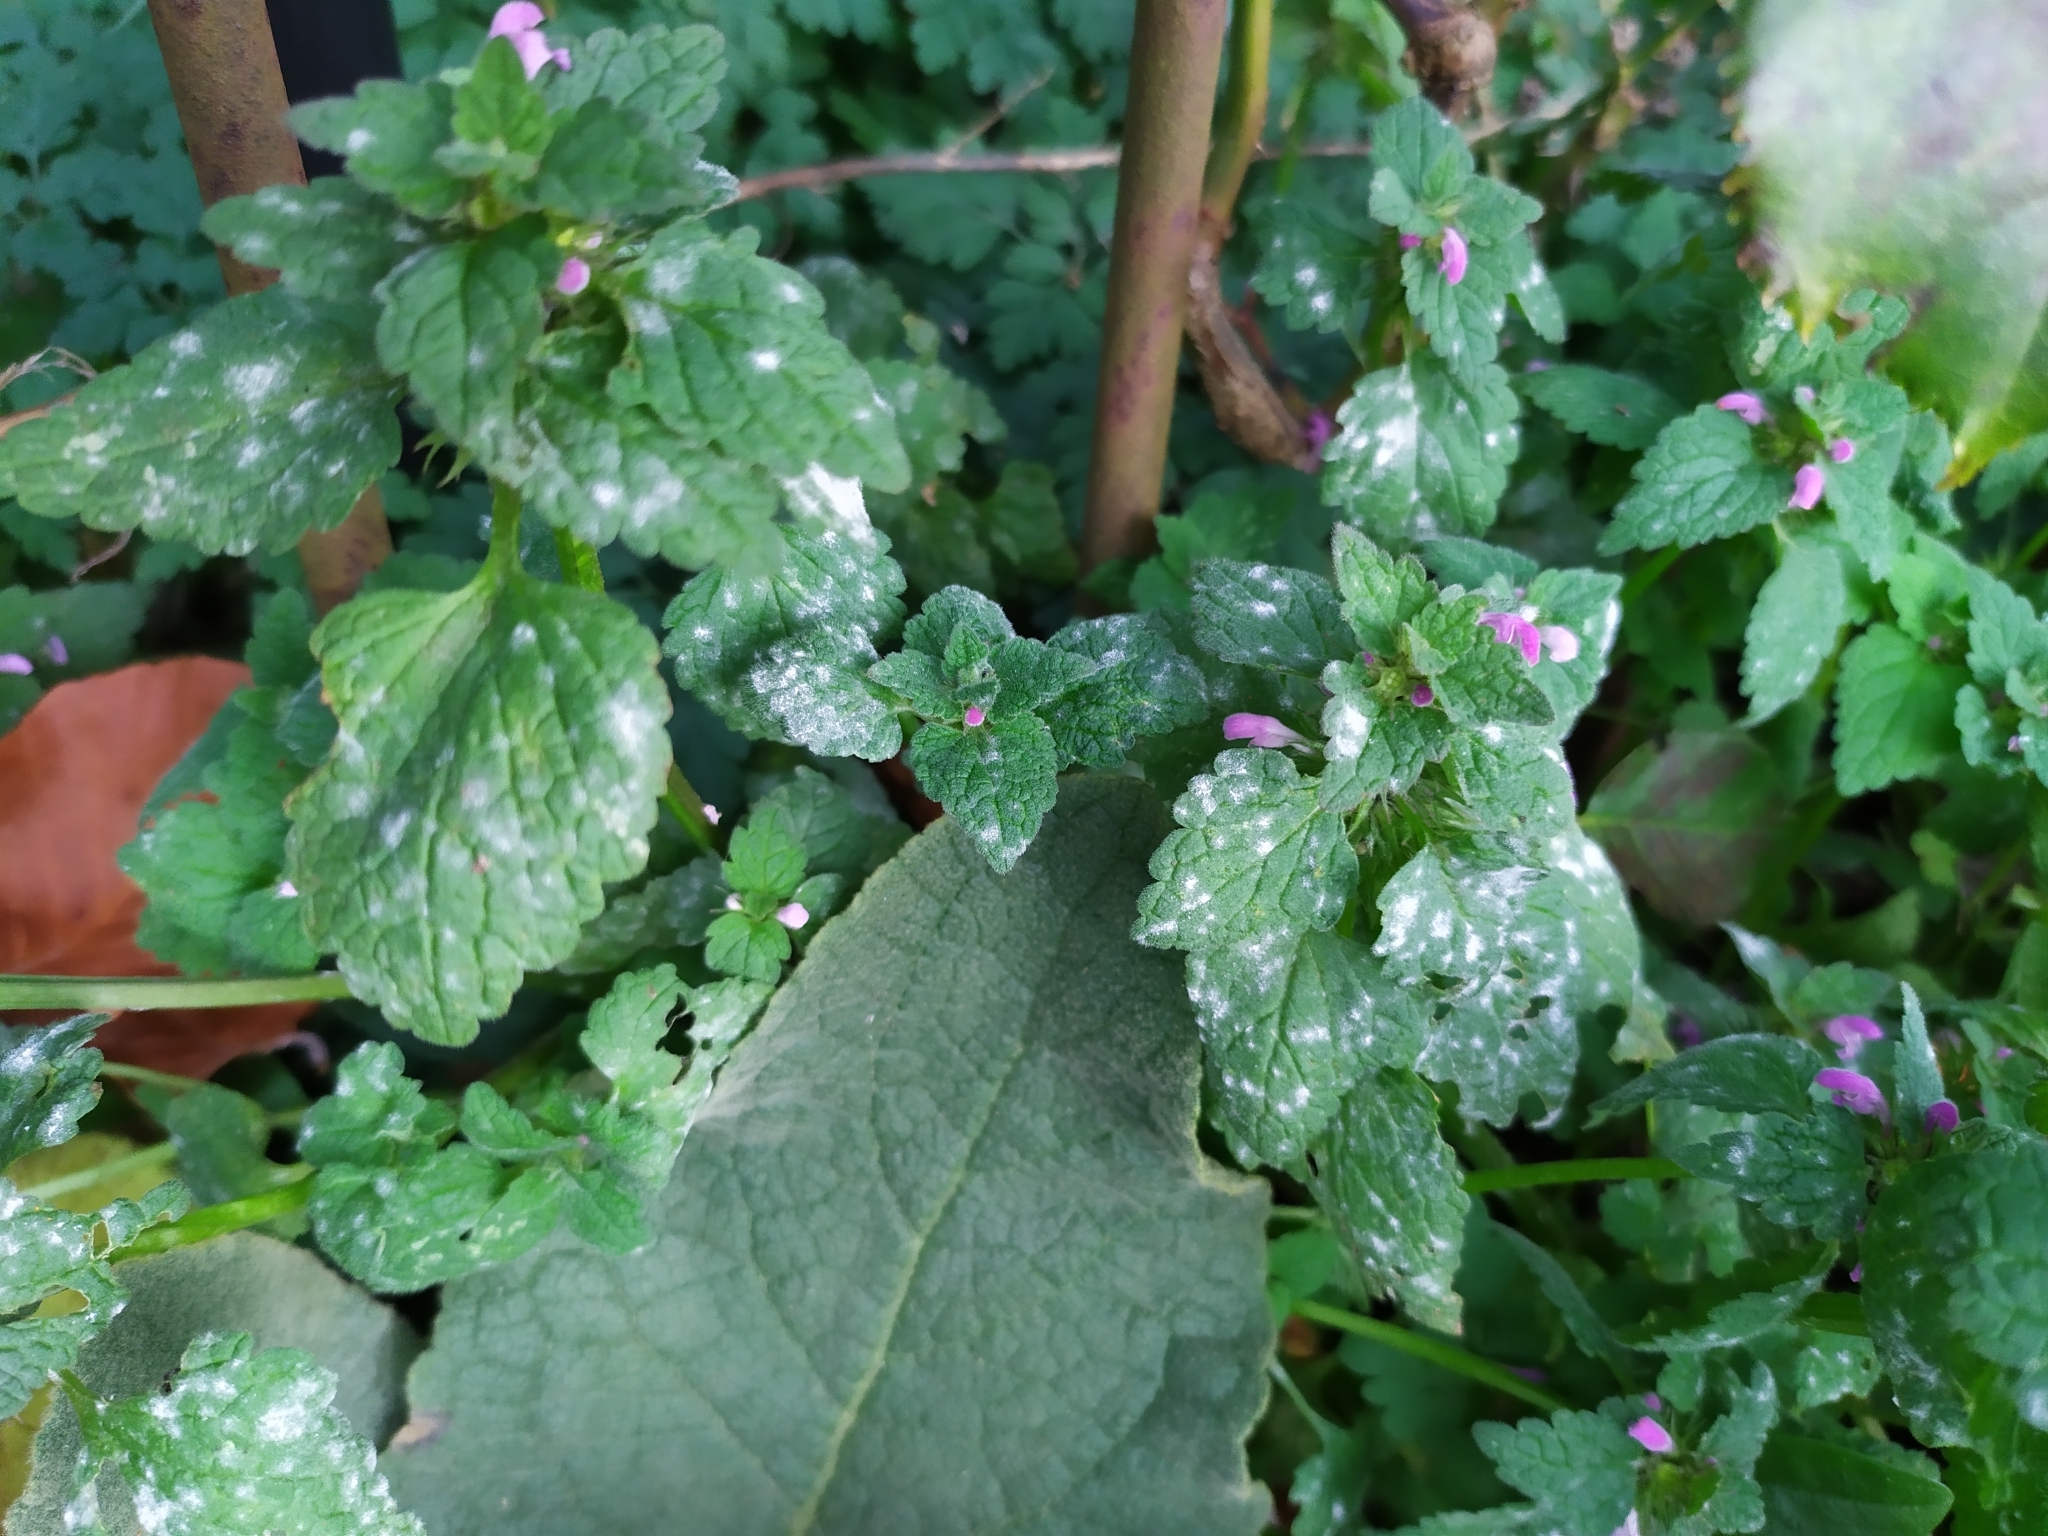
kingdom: Fungi
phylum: Ascomycota
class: Leotiomycetes
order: Helotiales
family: Erysiphaceae
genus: Neoerysiphe
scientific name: Neoerysiphe galeopsidis
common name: Mint mildew
